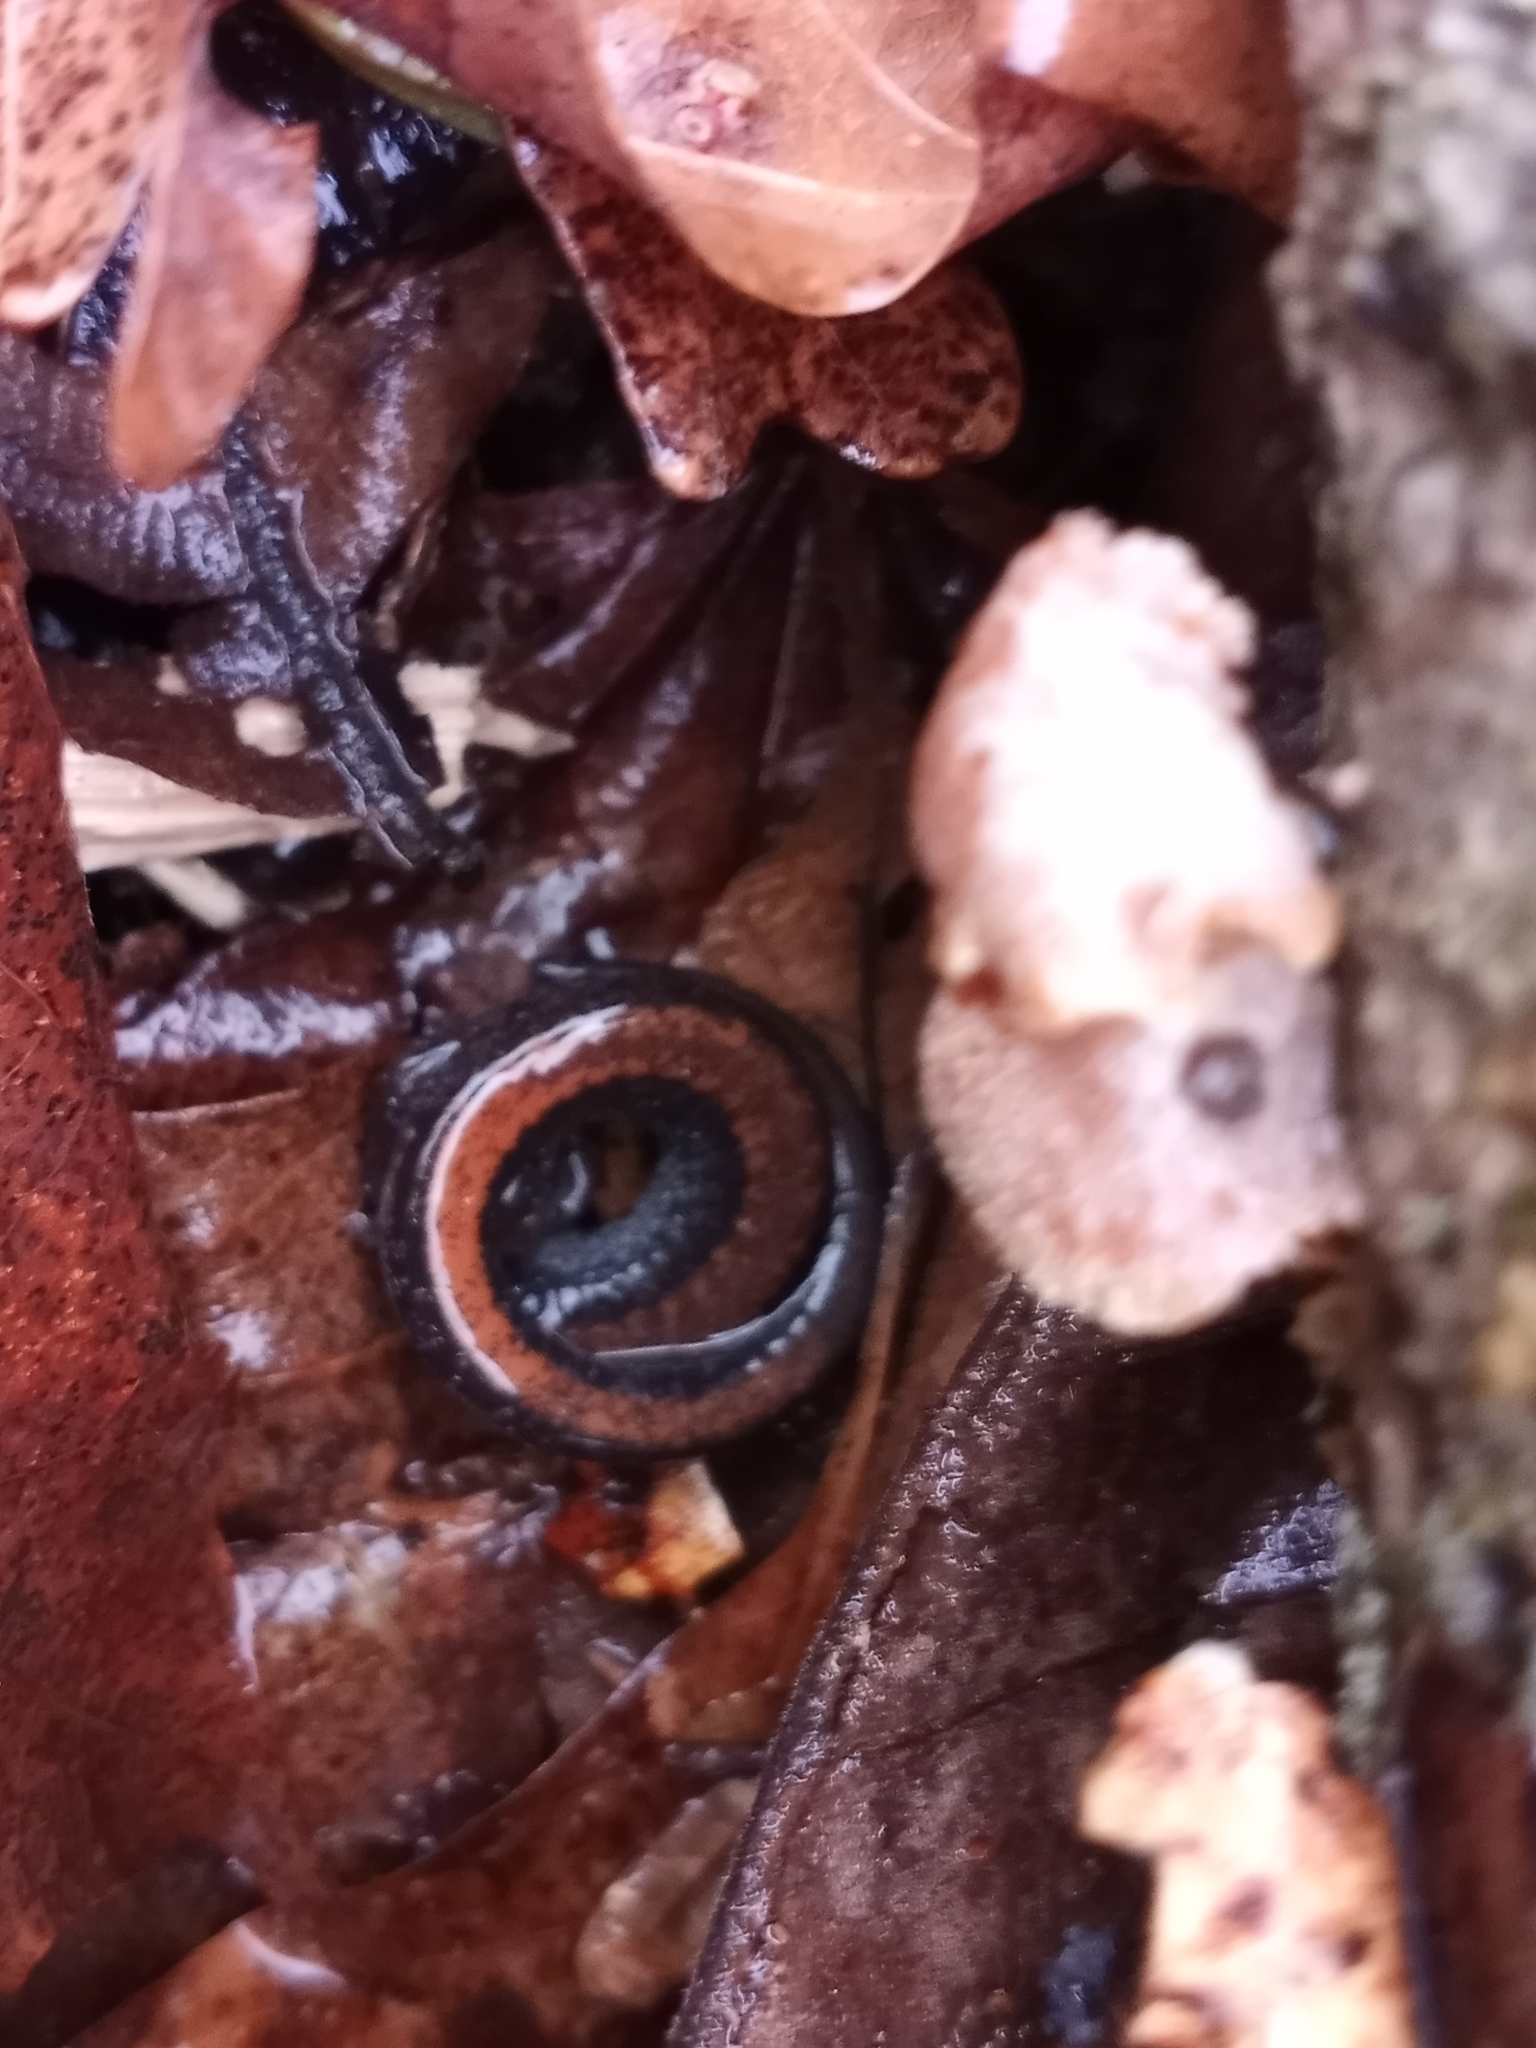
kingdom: Animalia
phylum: Chordata
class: Amphibia
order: Caudata
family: Plethodontidae
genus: Plethodon
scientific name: Plethodon cinereus
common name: Redback salamander
